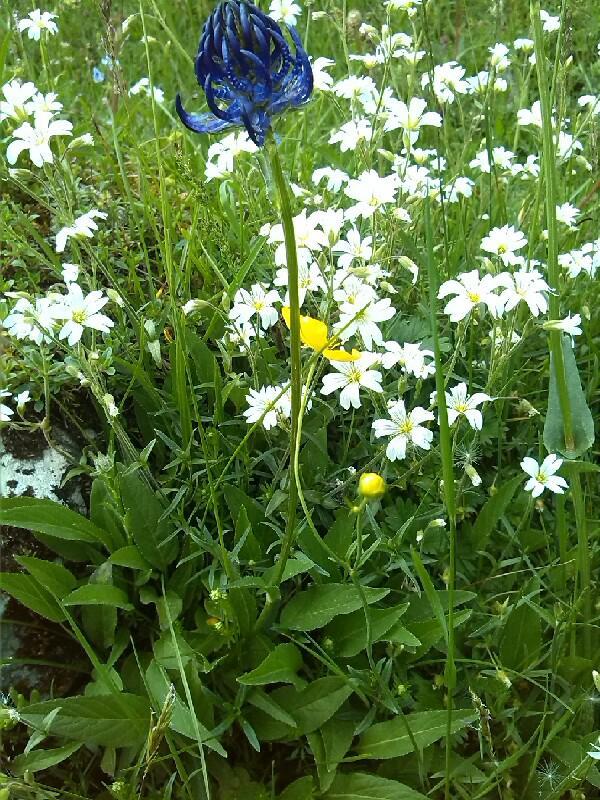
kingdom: Plantae
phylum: Tracheophyta
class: Magnoliopsida
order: Asterales
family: Campanulaceae
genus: Phyteuma
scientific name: Phyteuma orbiculare
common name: Round-headed rampion
